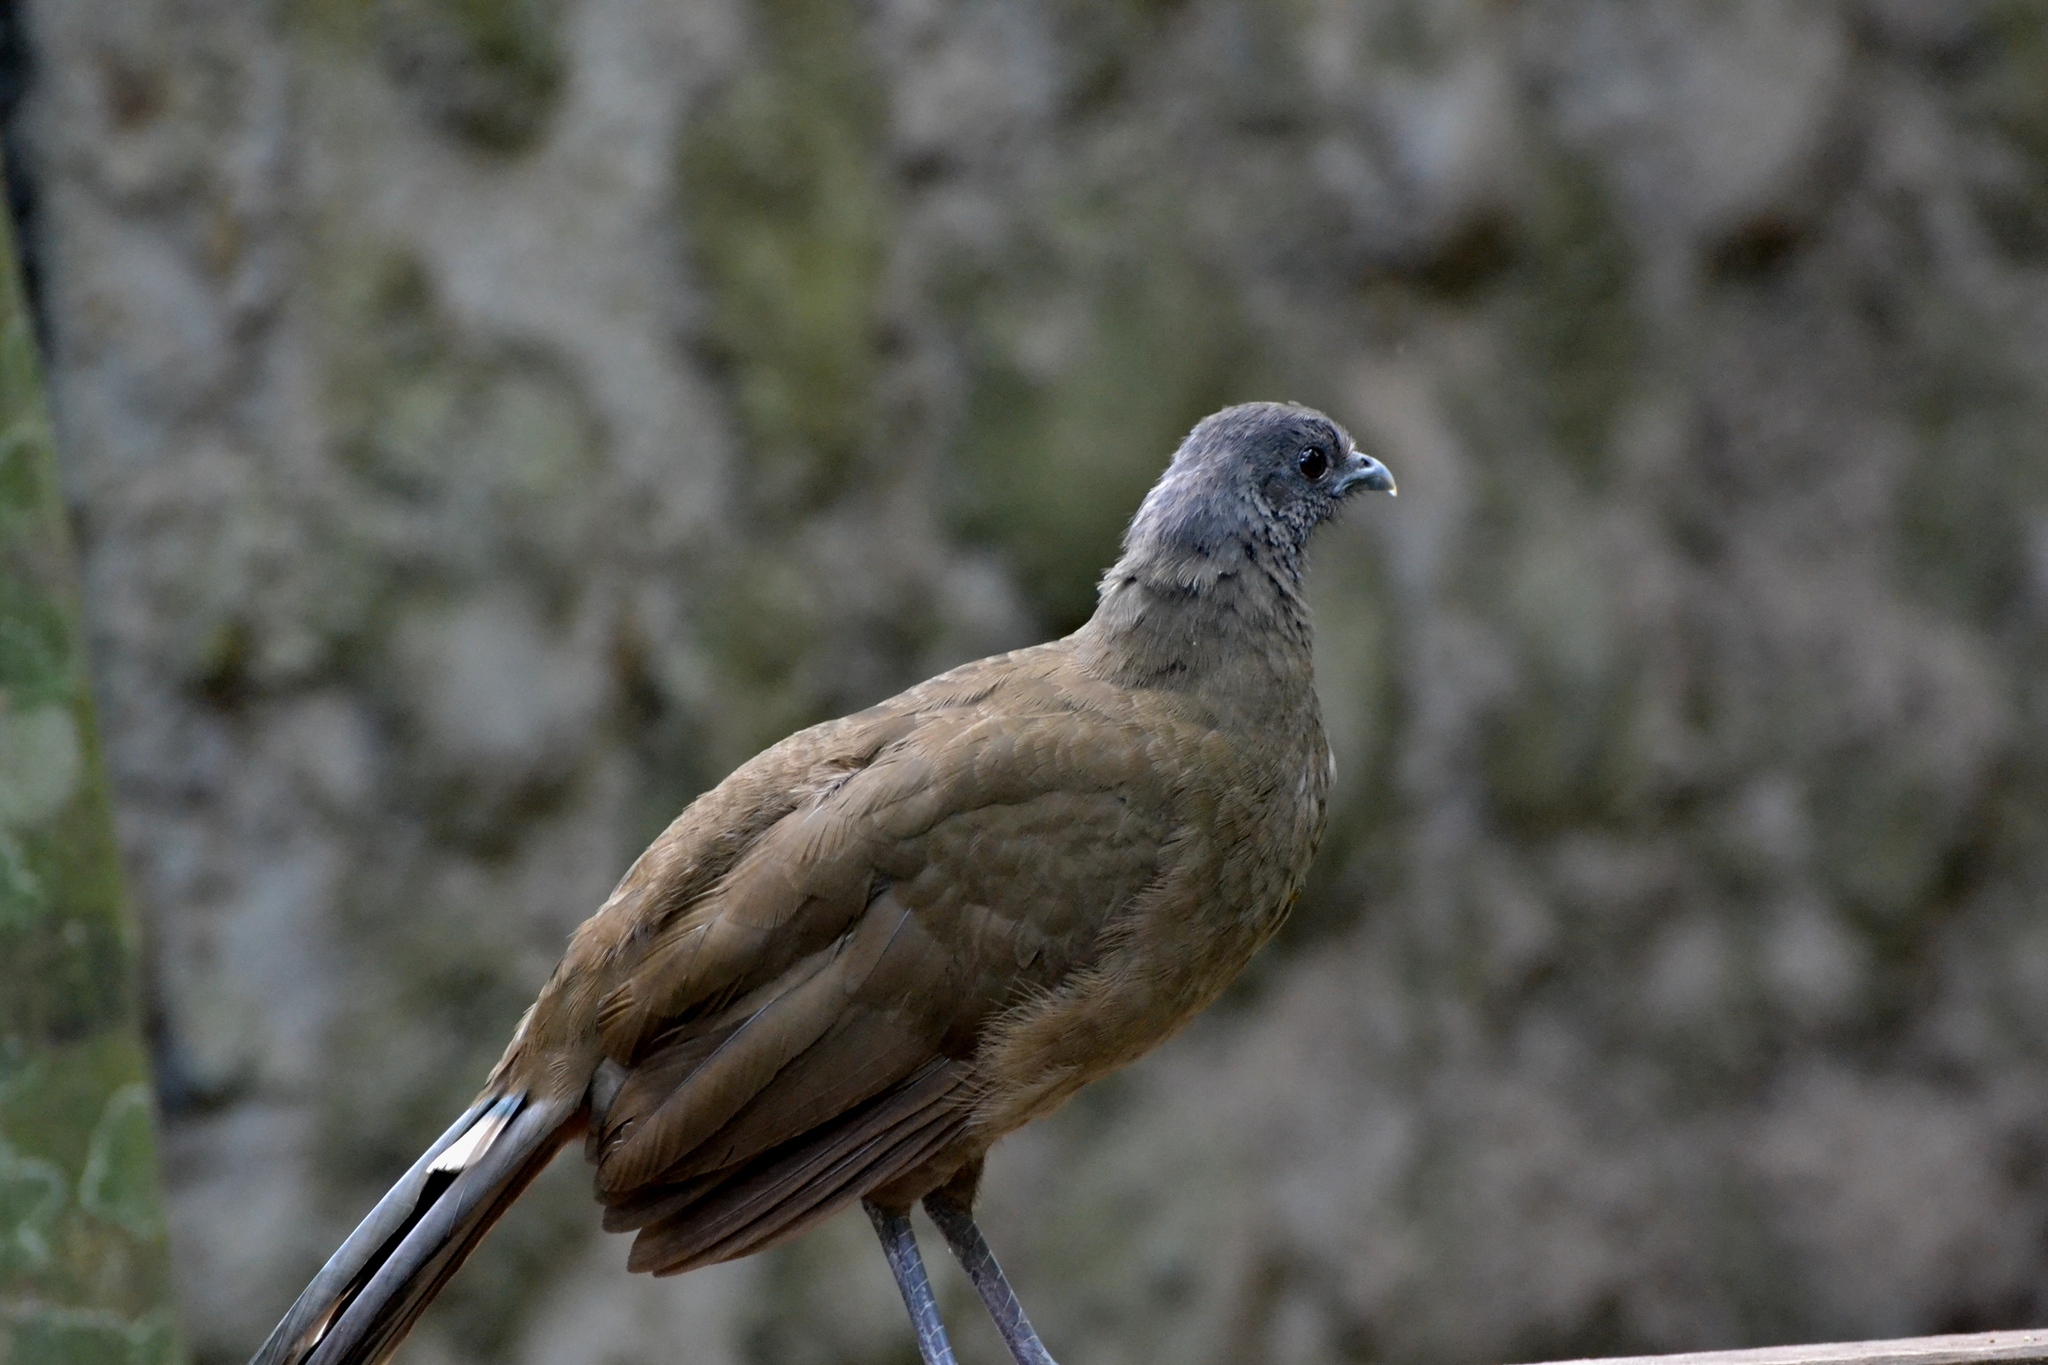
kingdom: Animalia
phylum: Chordata
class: Aves
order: Galliformes
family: Cracidae
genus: Ortalis
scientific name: Ortalis vetula
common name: Plain chachalaca
